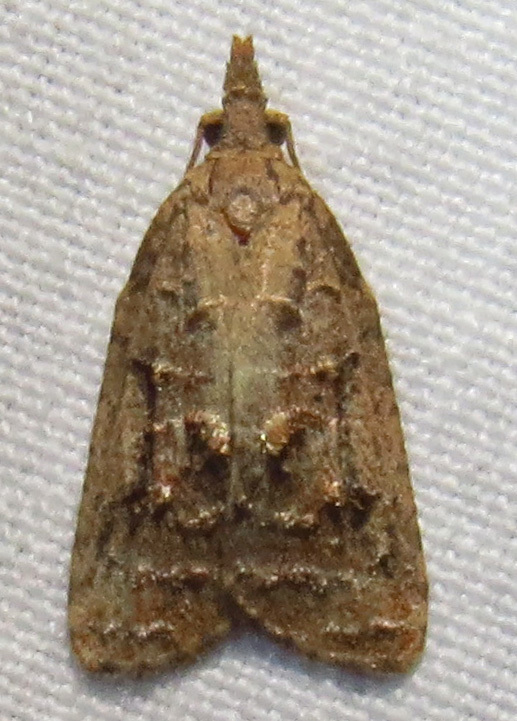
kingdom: Animalia
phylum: Arthropoda
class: Insecta
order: Lepidoptera
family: Tortricidae
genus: Platynota
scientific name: Platynota idaeusalis
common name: Tufted apple bud moth
